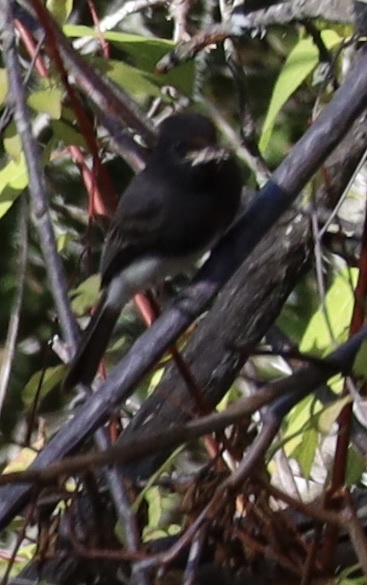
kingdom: Animalia
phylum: Chordata
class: Aves
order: Passeriformes
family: Tyrannidae
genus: Sayornis
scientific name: Sayornis nigricans
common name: Black phoebe
